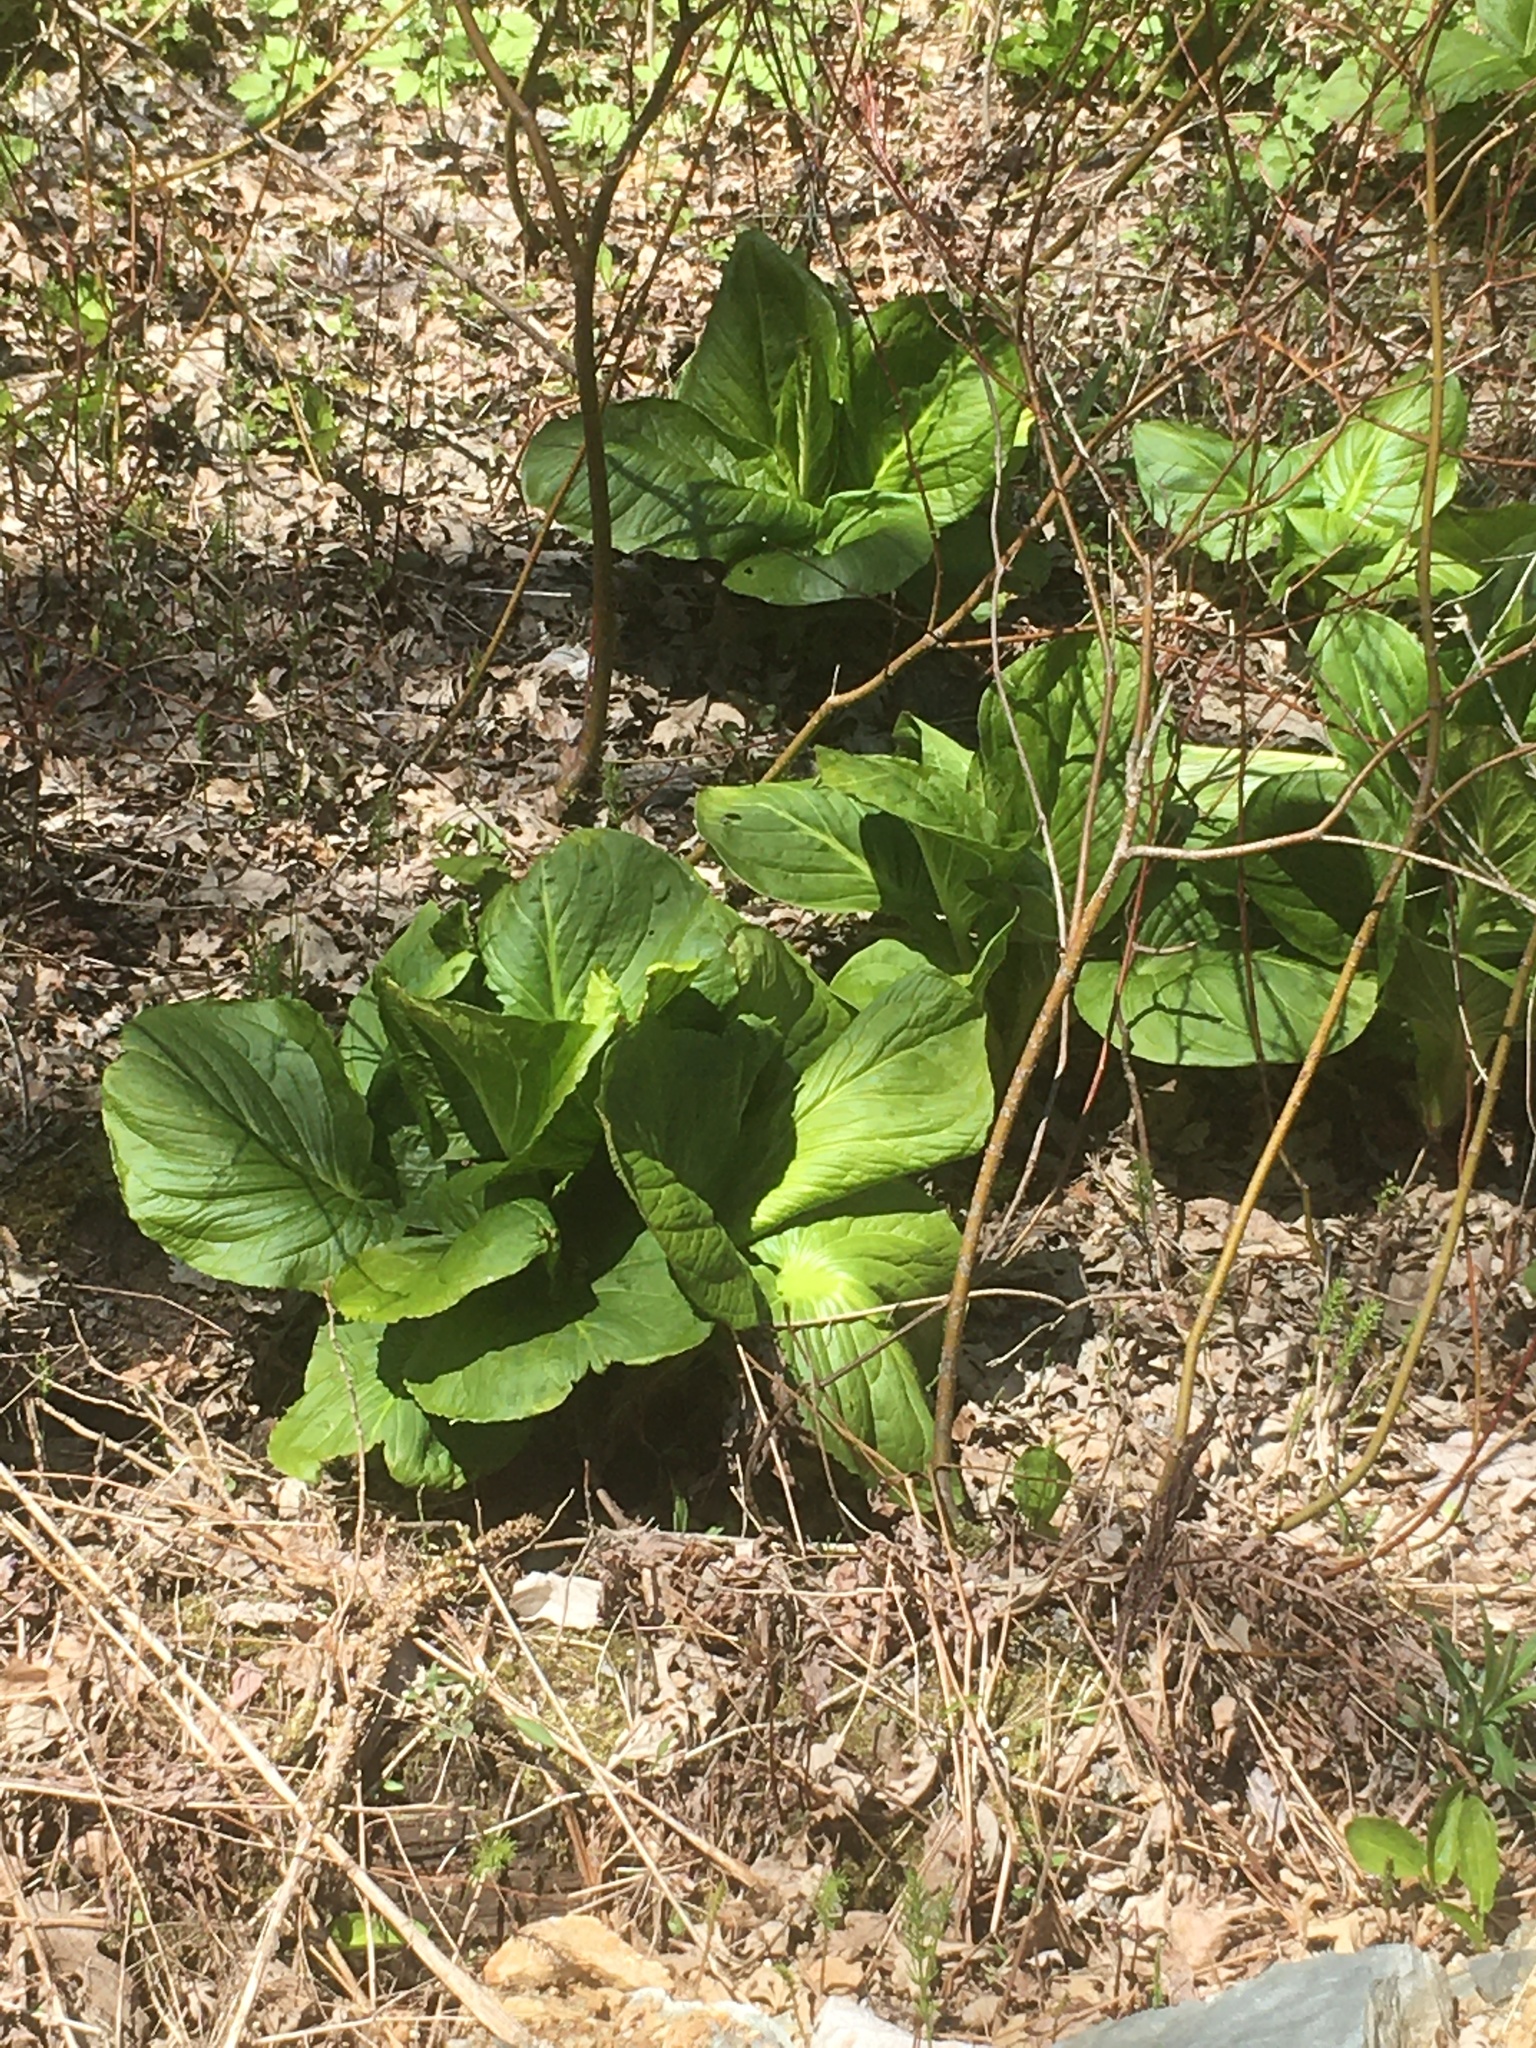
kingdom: Plantae
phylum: Tracheophyta
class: Liliopsida
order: Alismatales
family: Araceae
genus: Symplocarpus
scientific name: Symplocarpus foetidus
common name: Eastern skunk cabbage
